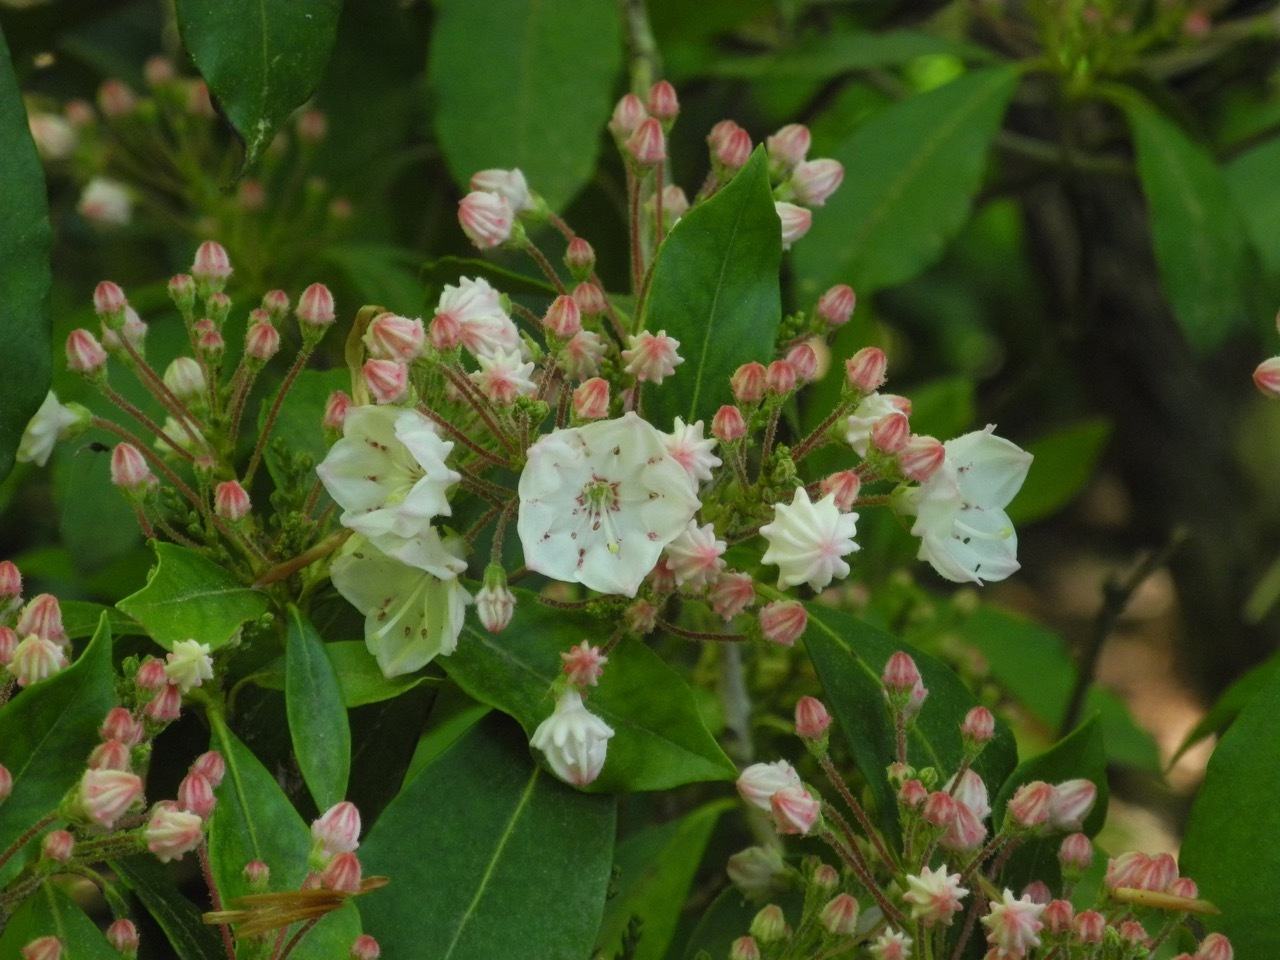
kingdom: Plantae
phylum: Tracheophyta
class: Magnoliopsida
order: Ericales
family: Ericaceae
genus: Kalmia
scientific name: Kalmia latifolia
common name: Mountain-laurel
